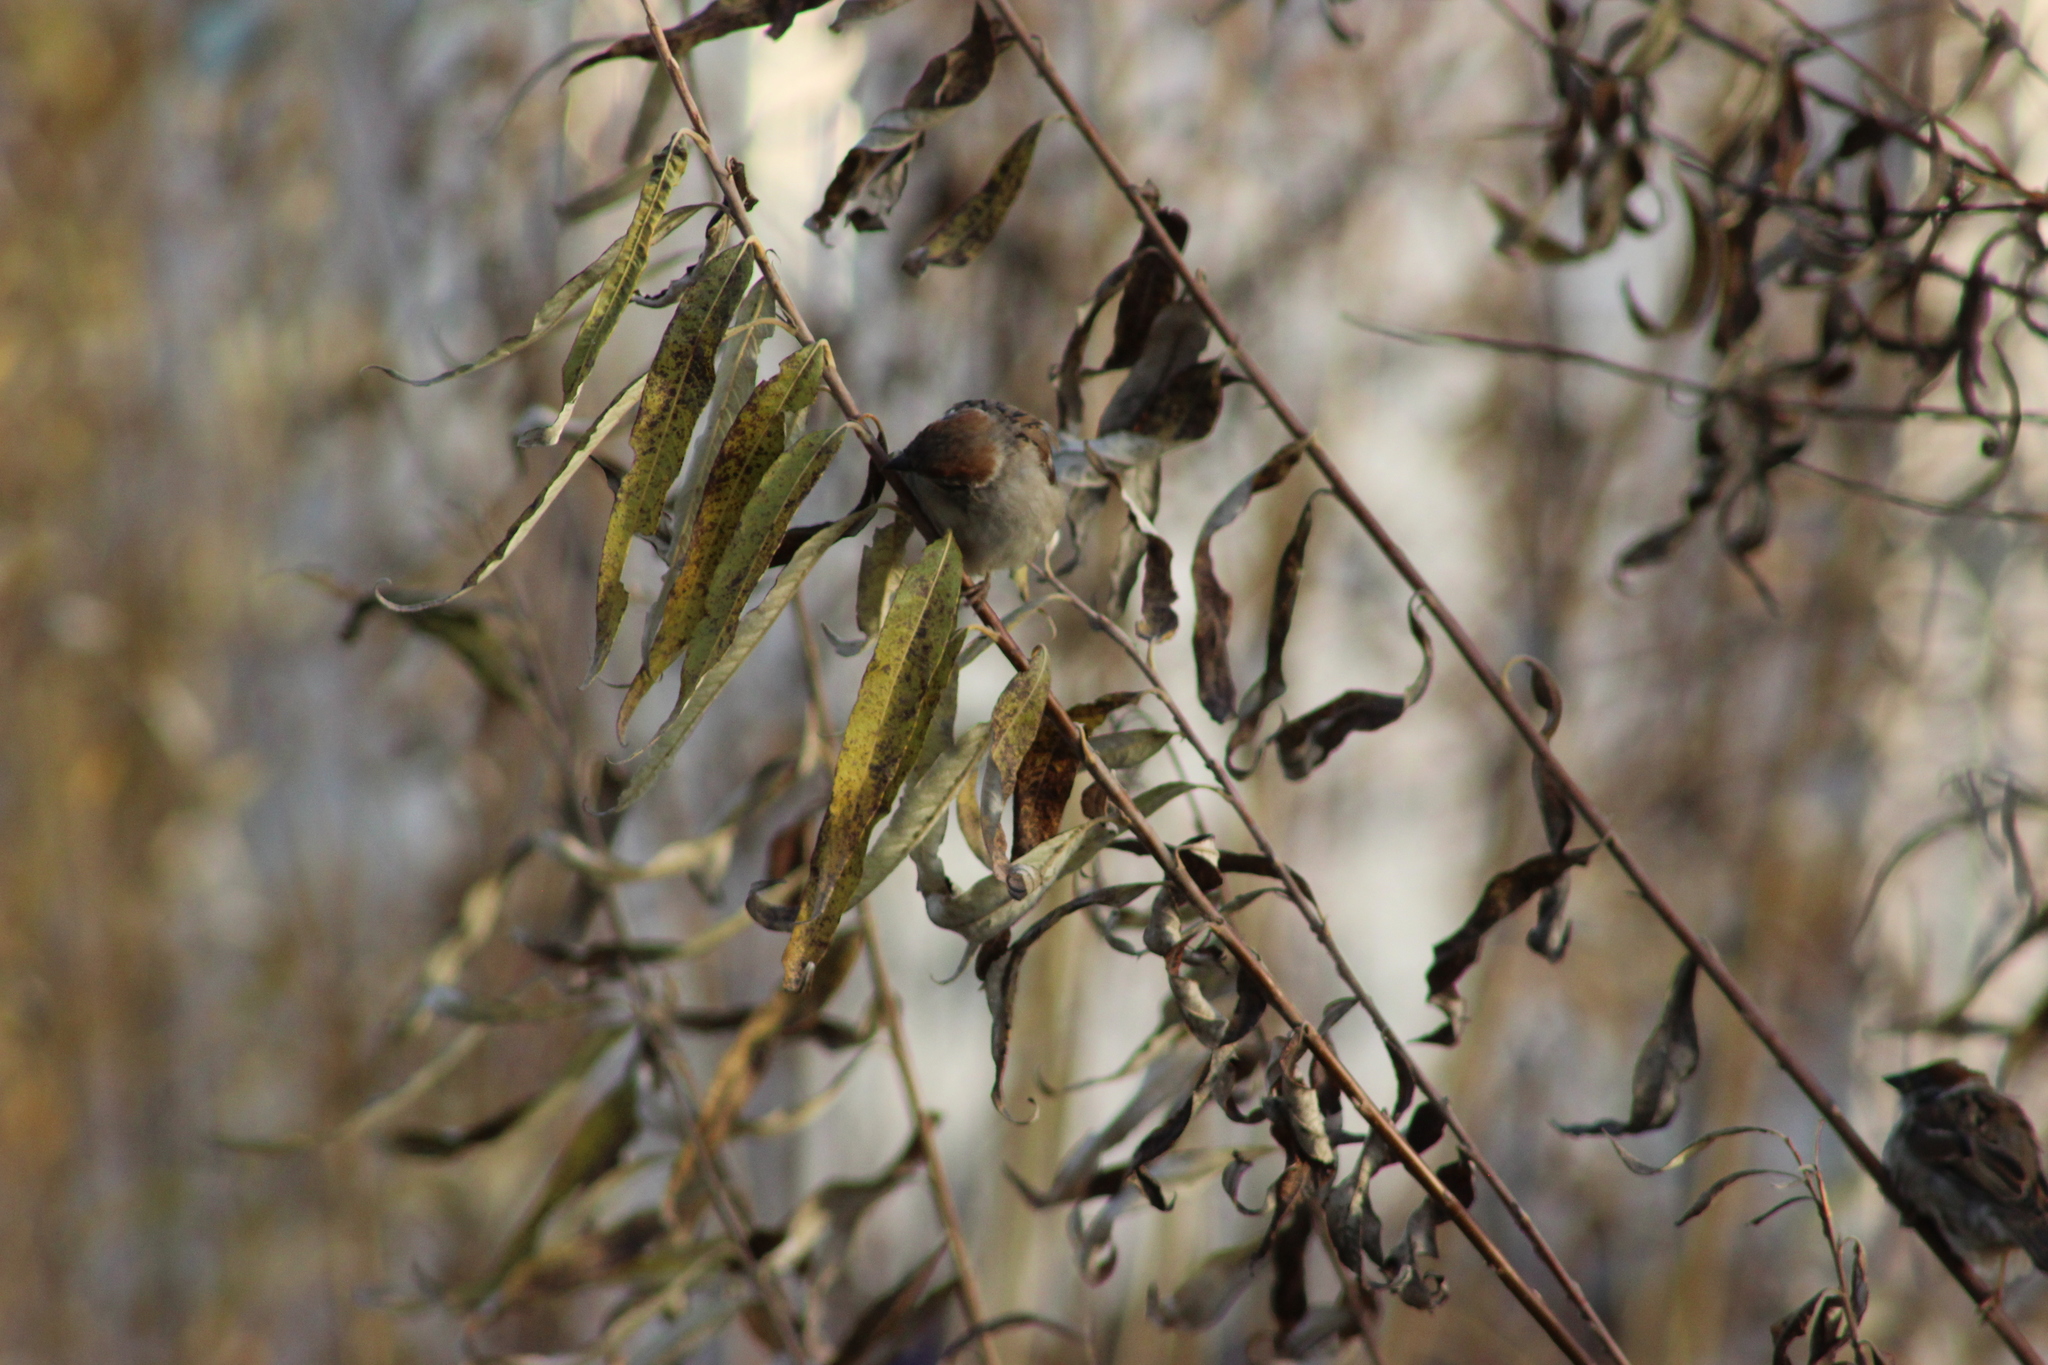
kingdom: Animalia
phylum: Chordata
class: Aves
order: Passeriformes
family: Passeridae
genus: Passer
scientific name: Passer montanus
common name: Eurasian tree sparrow
